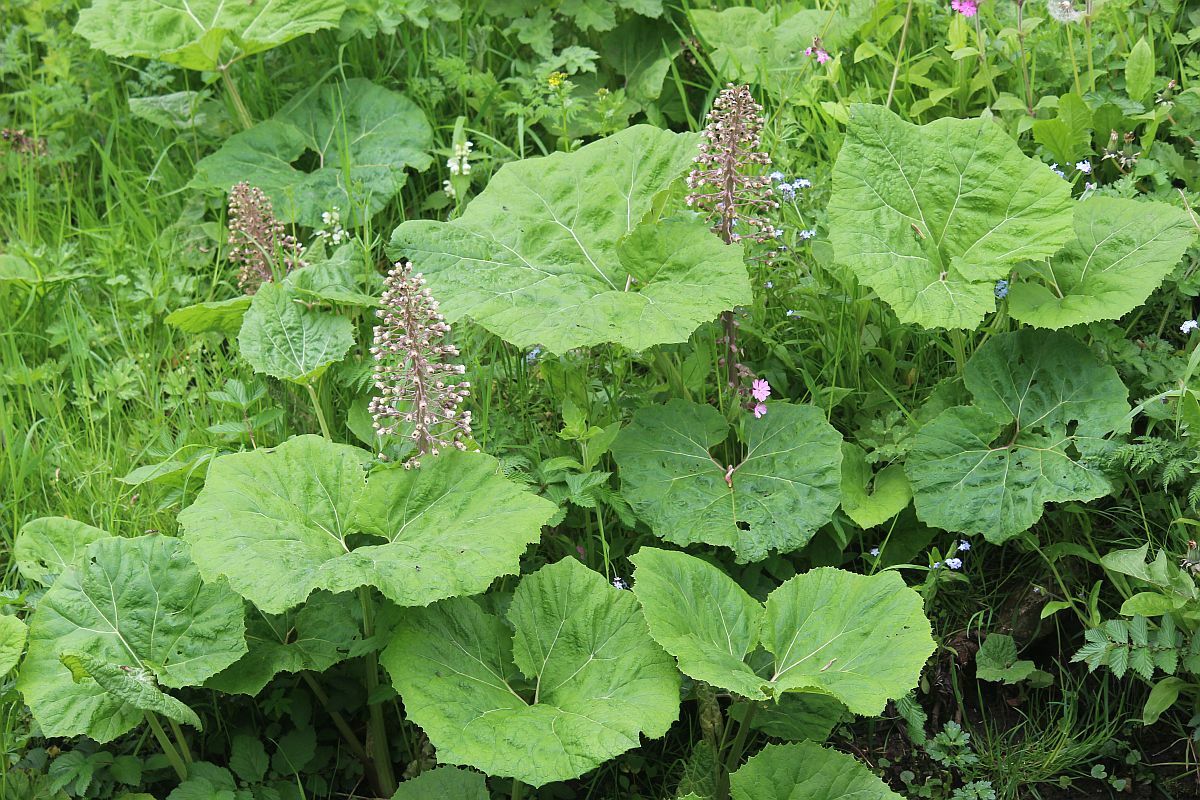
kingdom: Plantae
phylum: Tracheophyta
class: Magnoliopsida
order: Asterales
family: Asteraceae
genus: Petasites
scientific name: Petasites hybridus
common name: Butterbur
